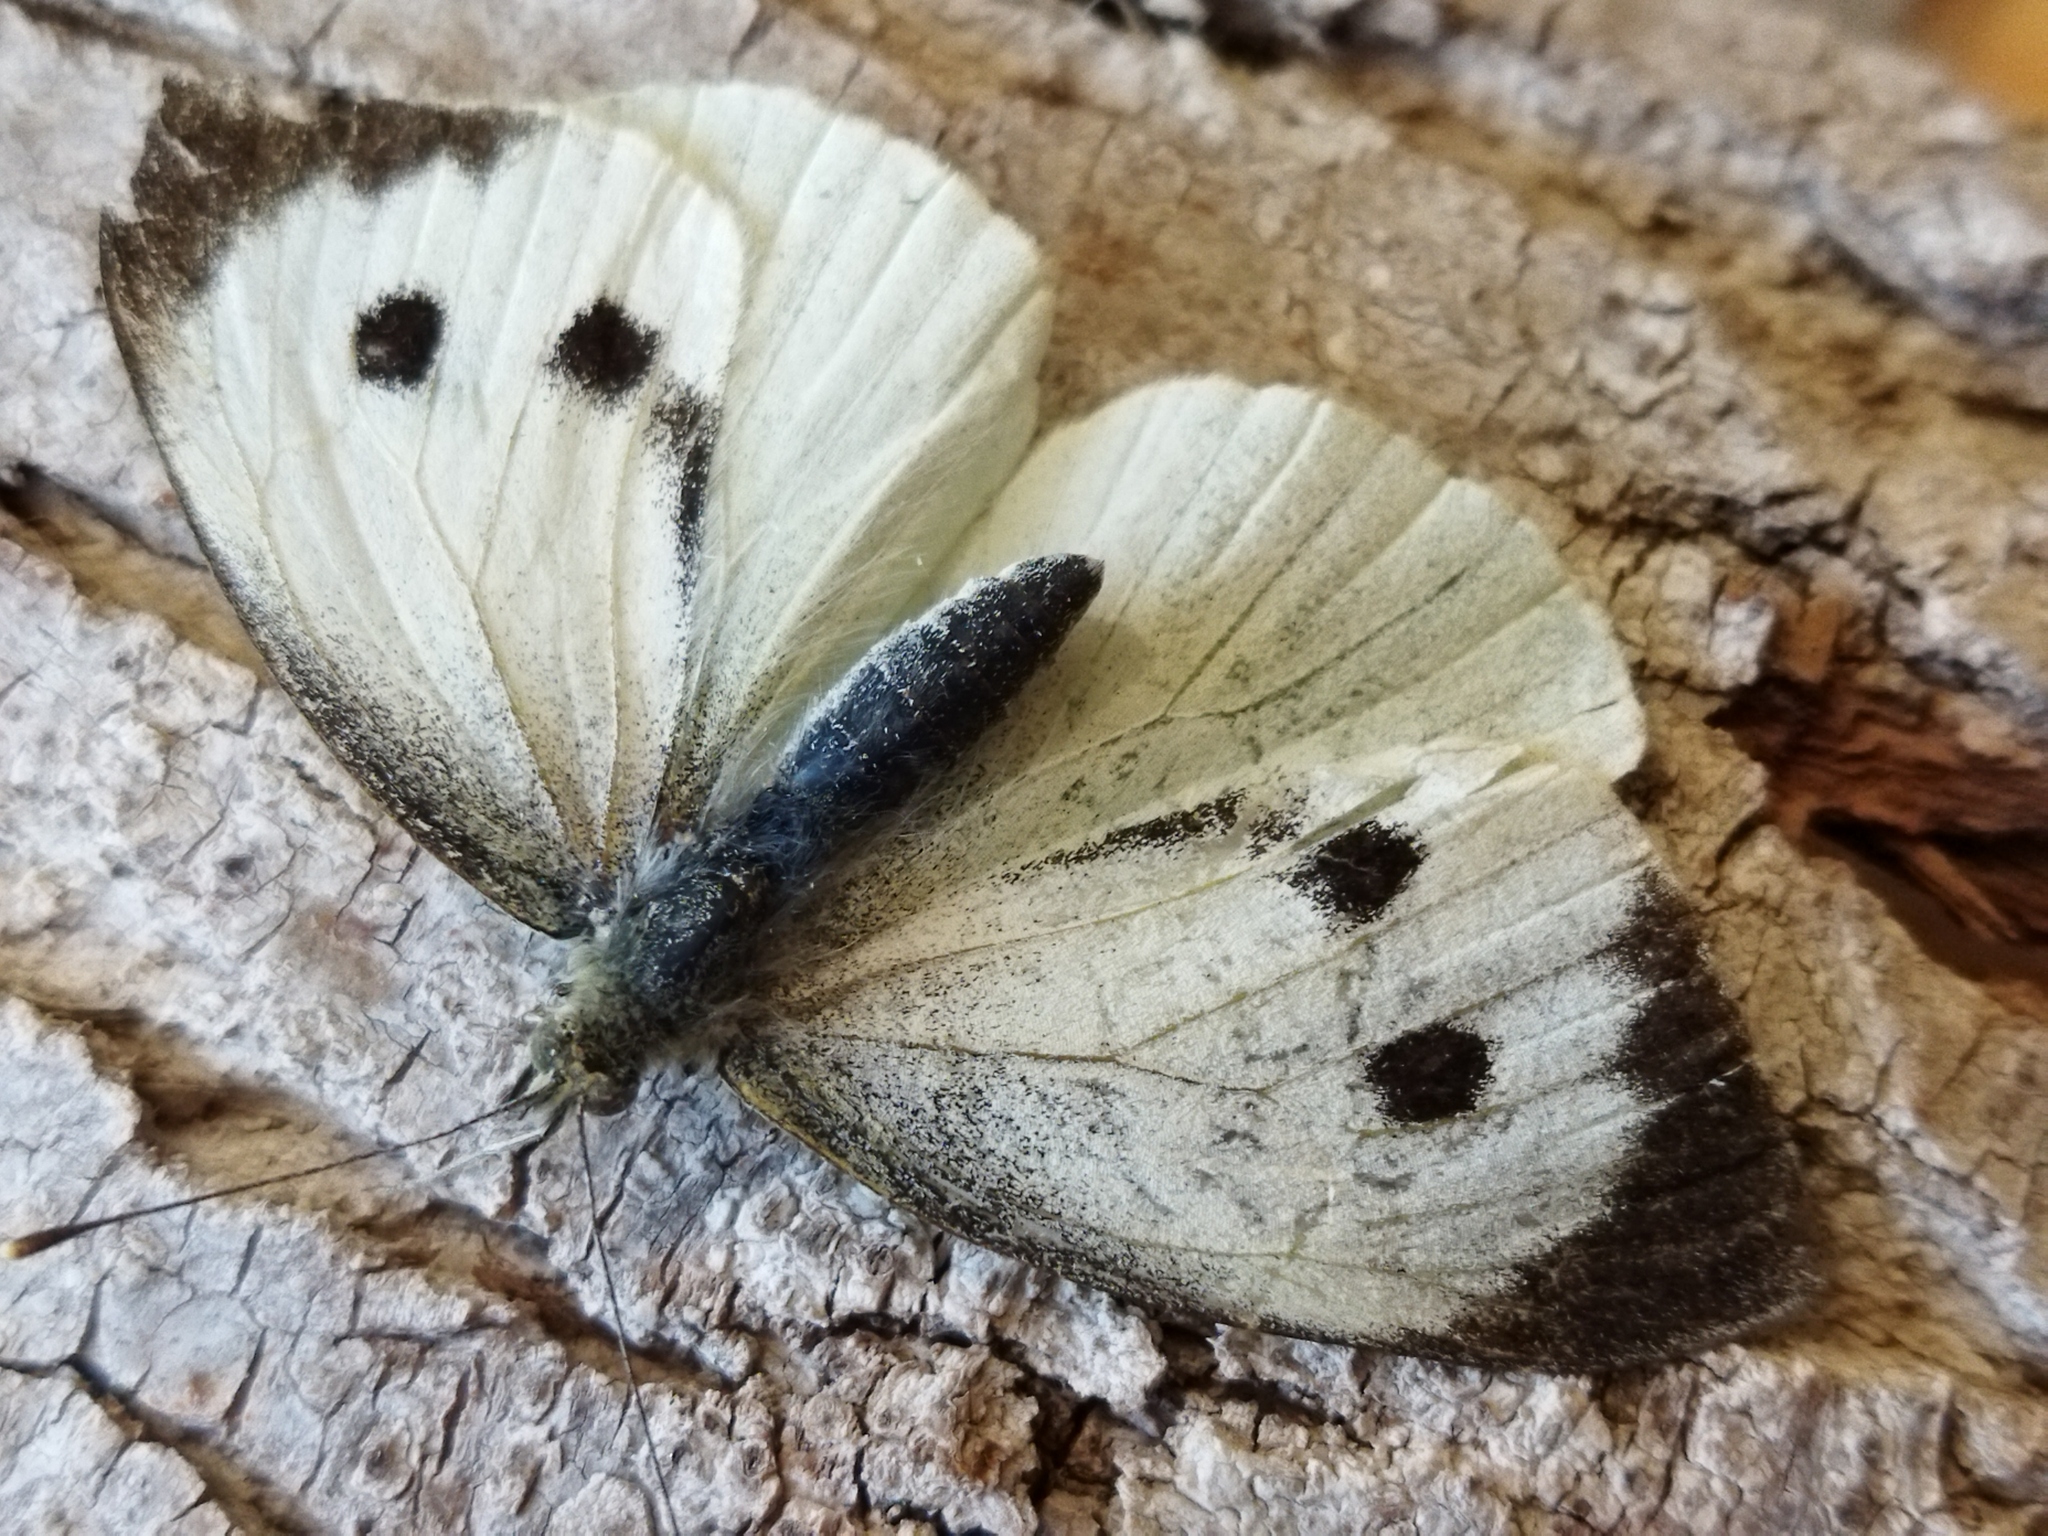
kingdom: Animalia
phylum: Arthropoda
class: Insecta
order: Lepidoptera
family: Pieridae
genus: Pieris
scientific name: Pieris brassicae
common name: Large white
